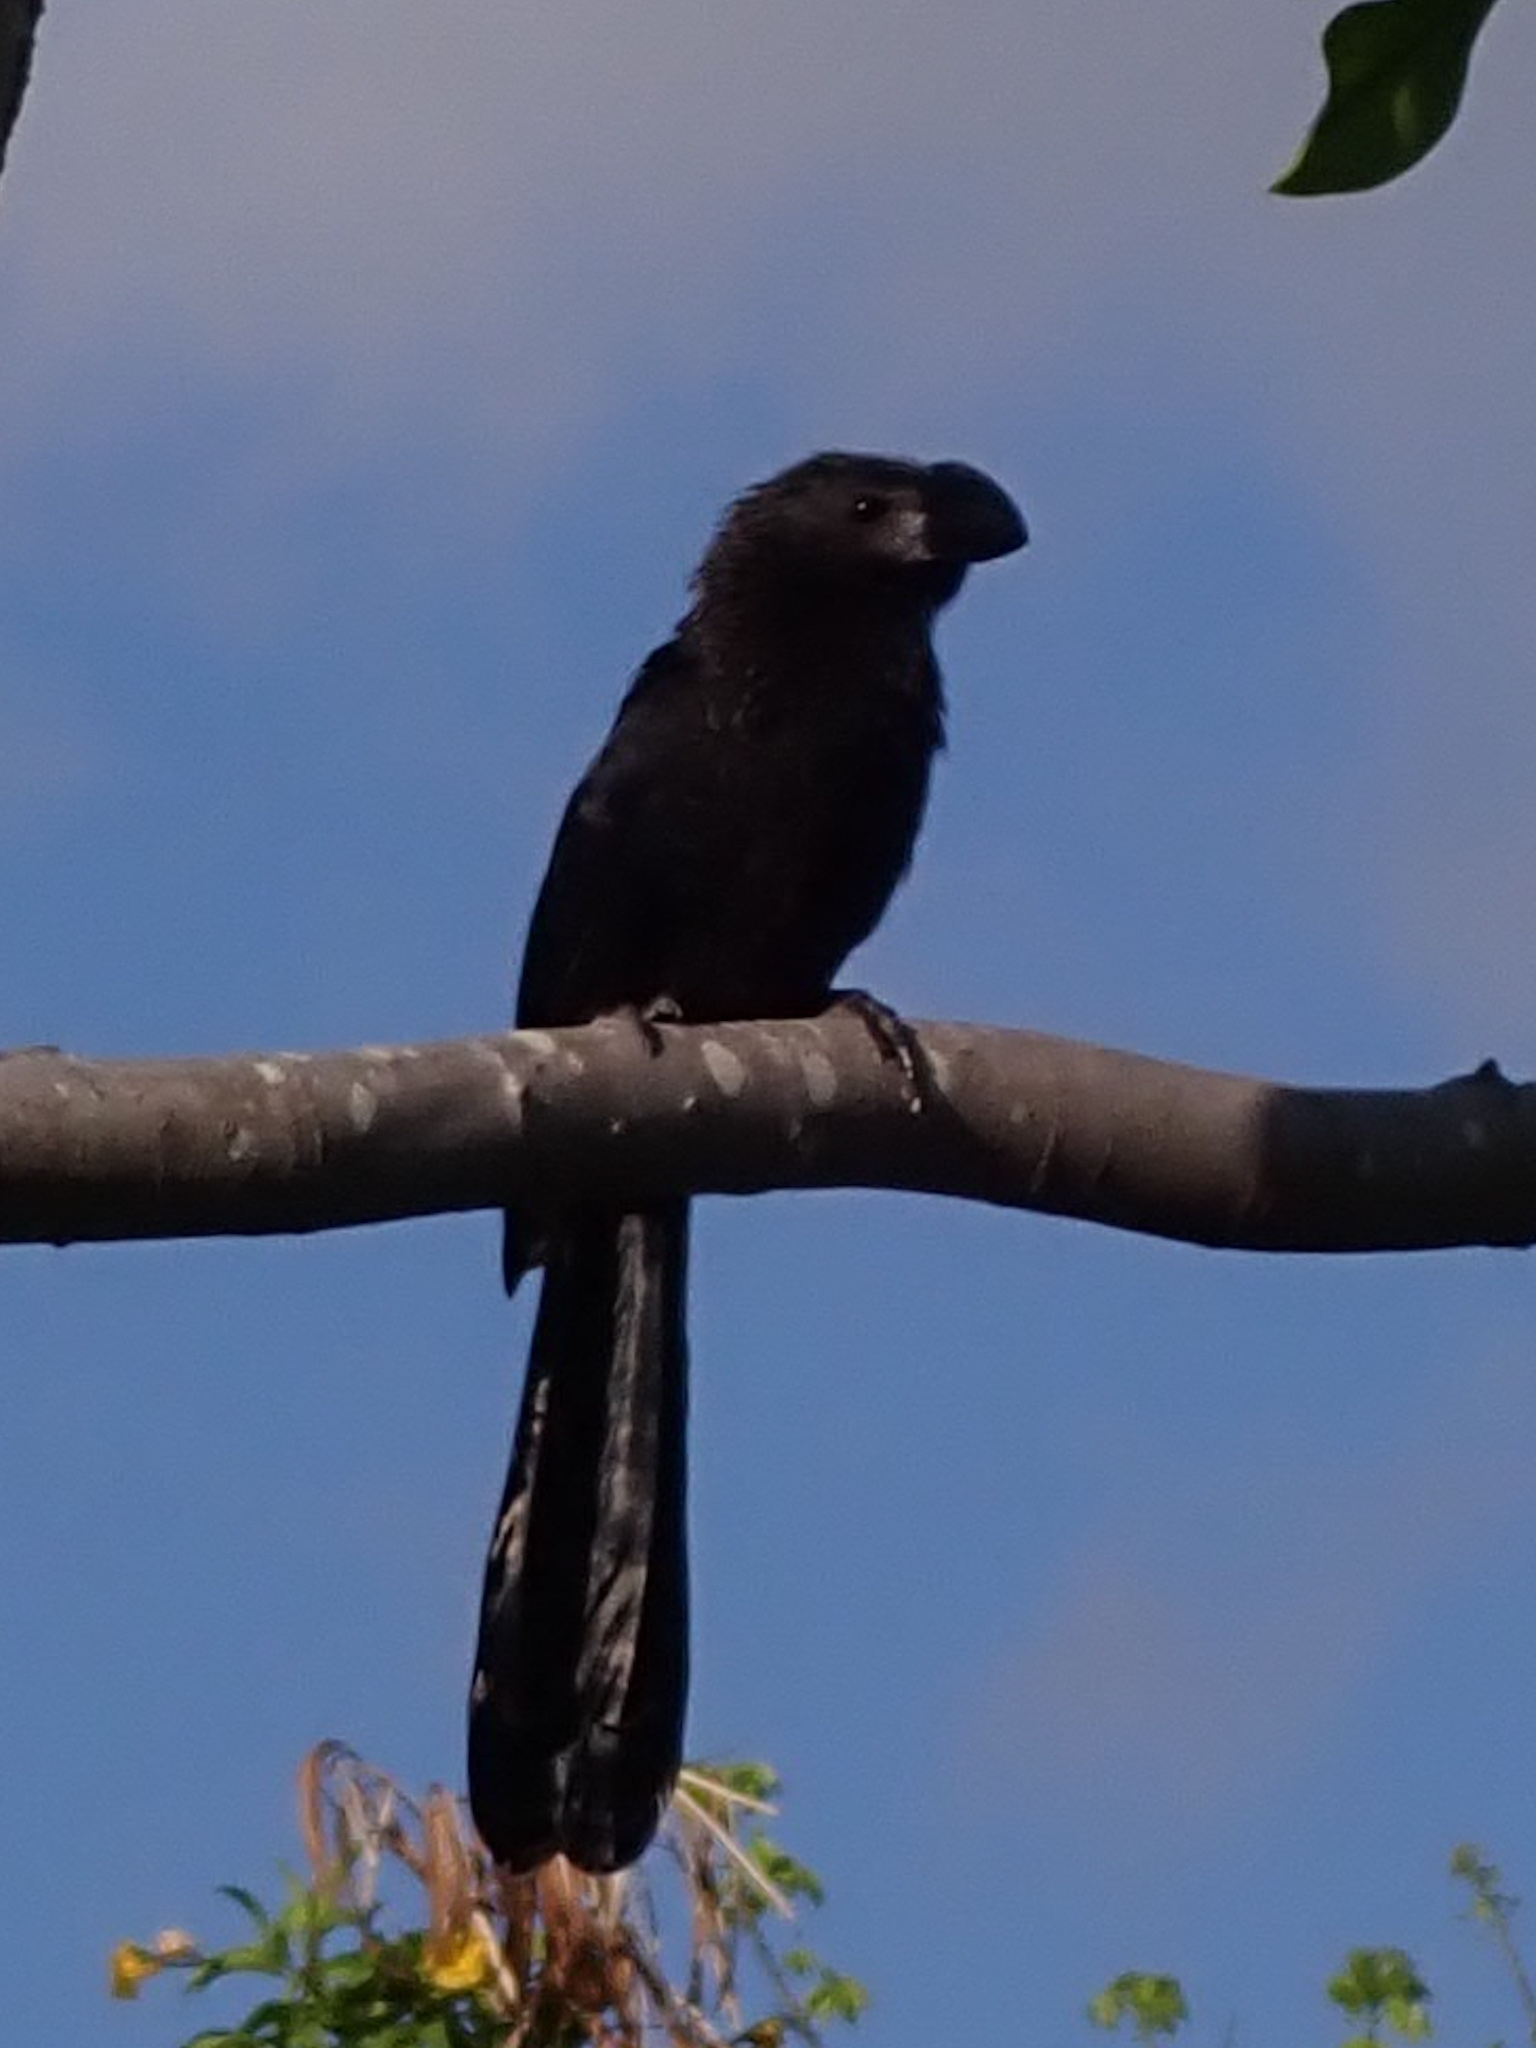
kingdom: Animalia
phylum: Chordata
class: Aves
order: Cuculiformes
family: Cuculidae
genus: Crotophaga
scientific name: Crotophaga ani
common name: Smooth-billed ani
